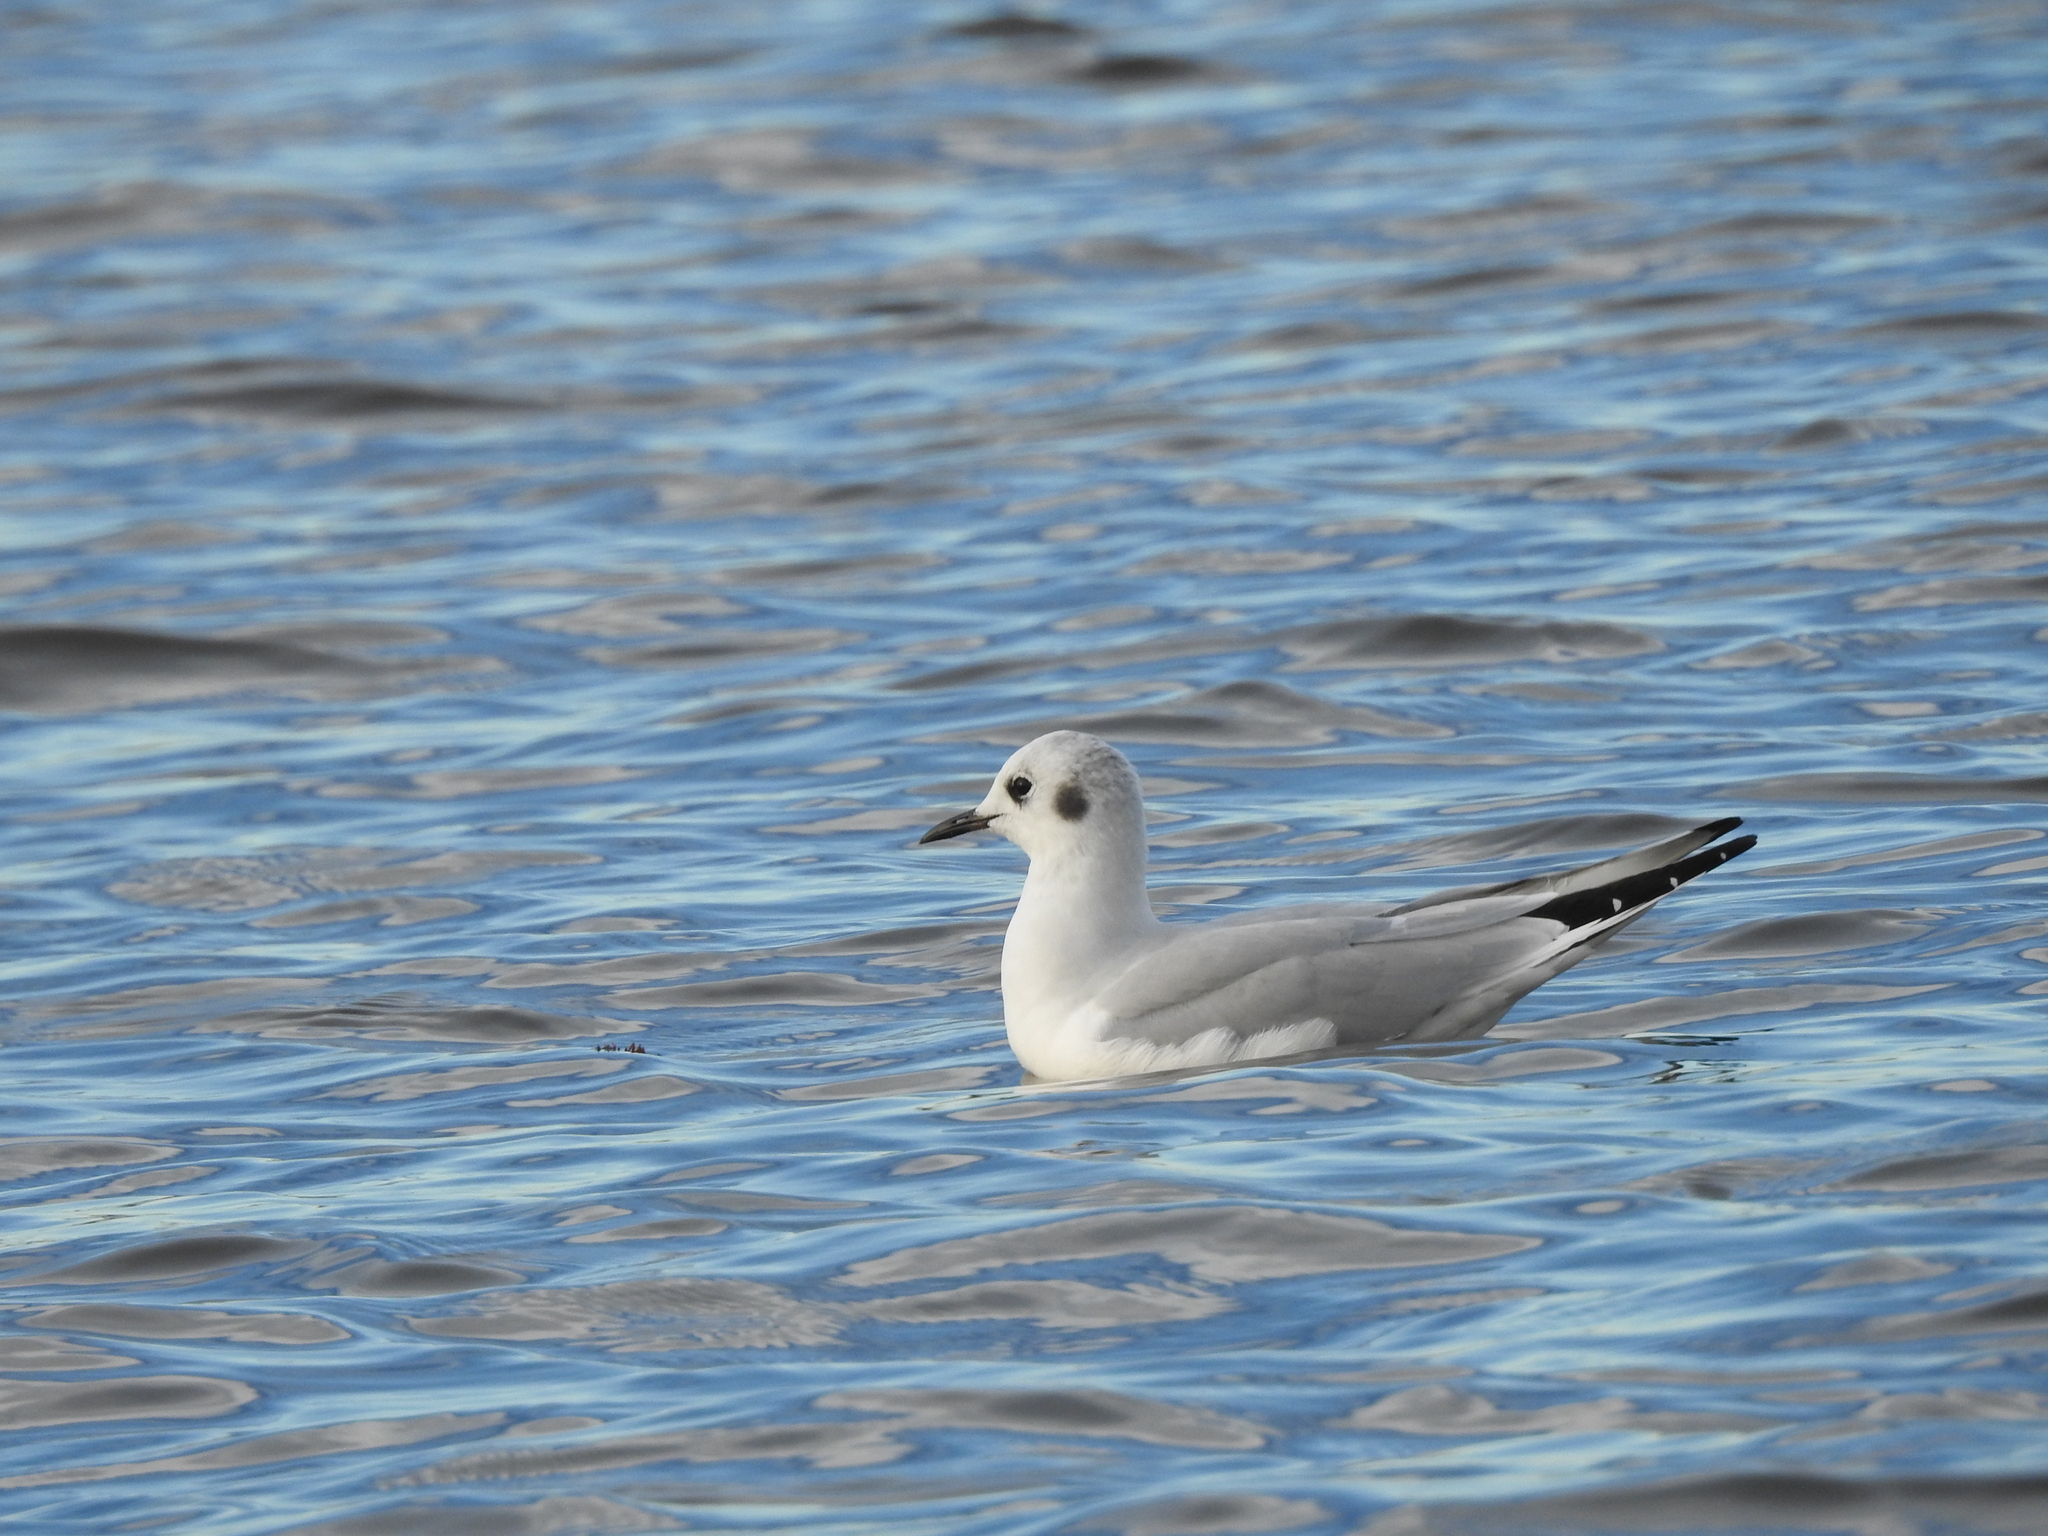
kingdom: Animalia
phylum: Chordata
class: Aves
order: Charadriiformes
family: Laridae
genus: Chroicocephalus
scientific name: Chroicocephalus philadelphia
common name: Bonaparte's gull
